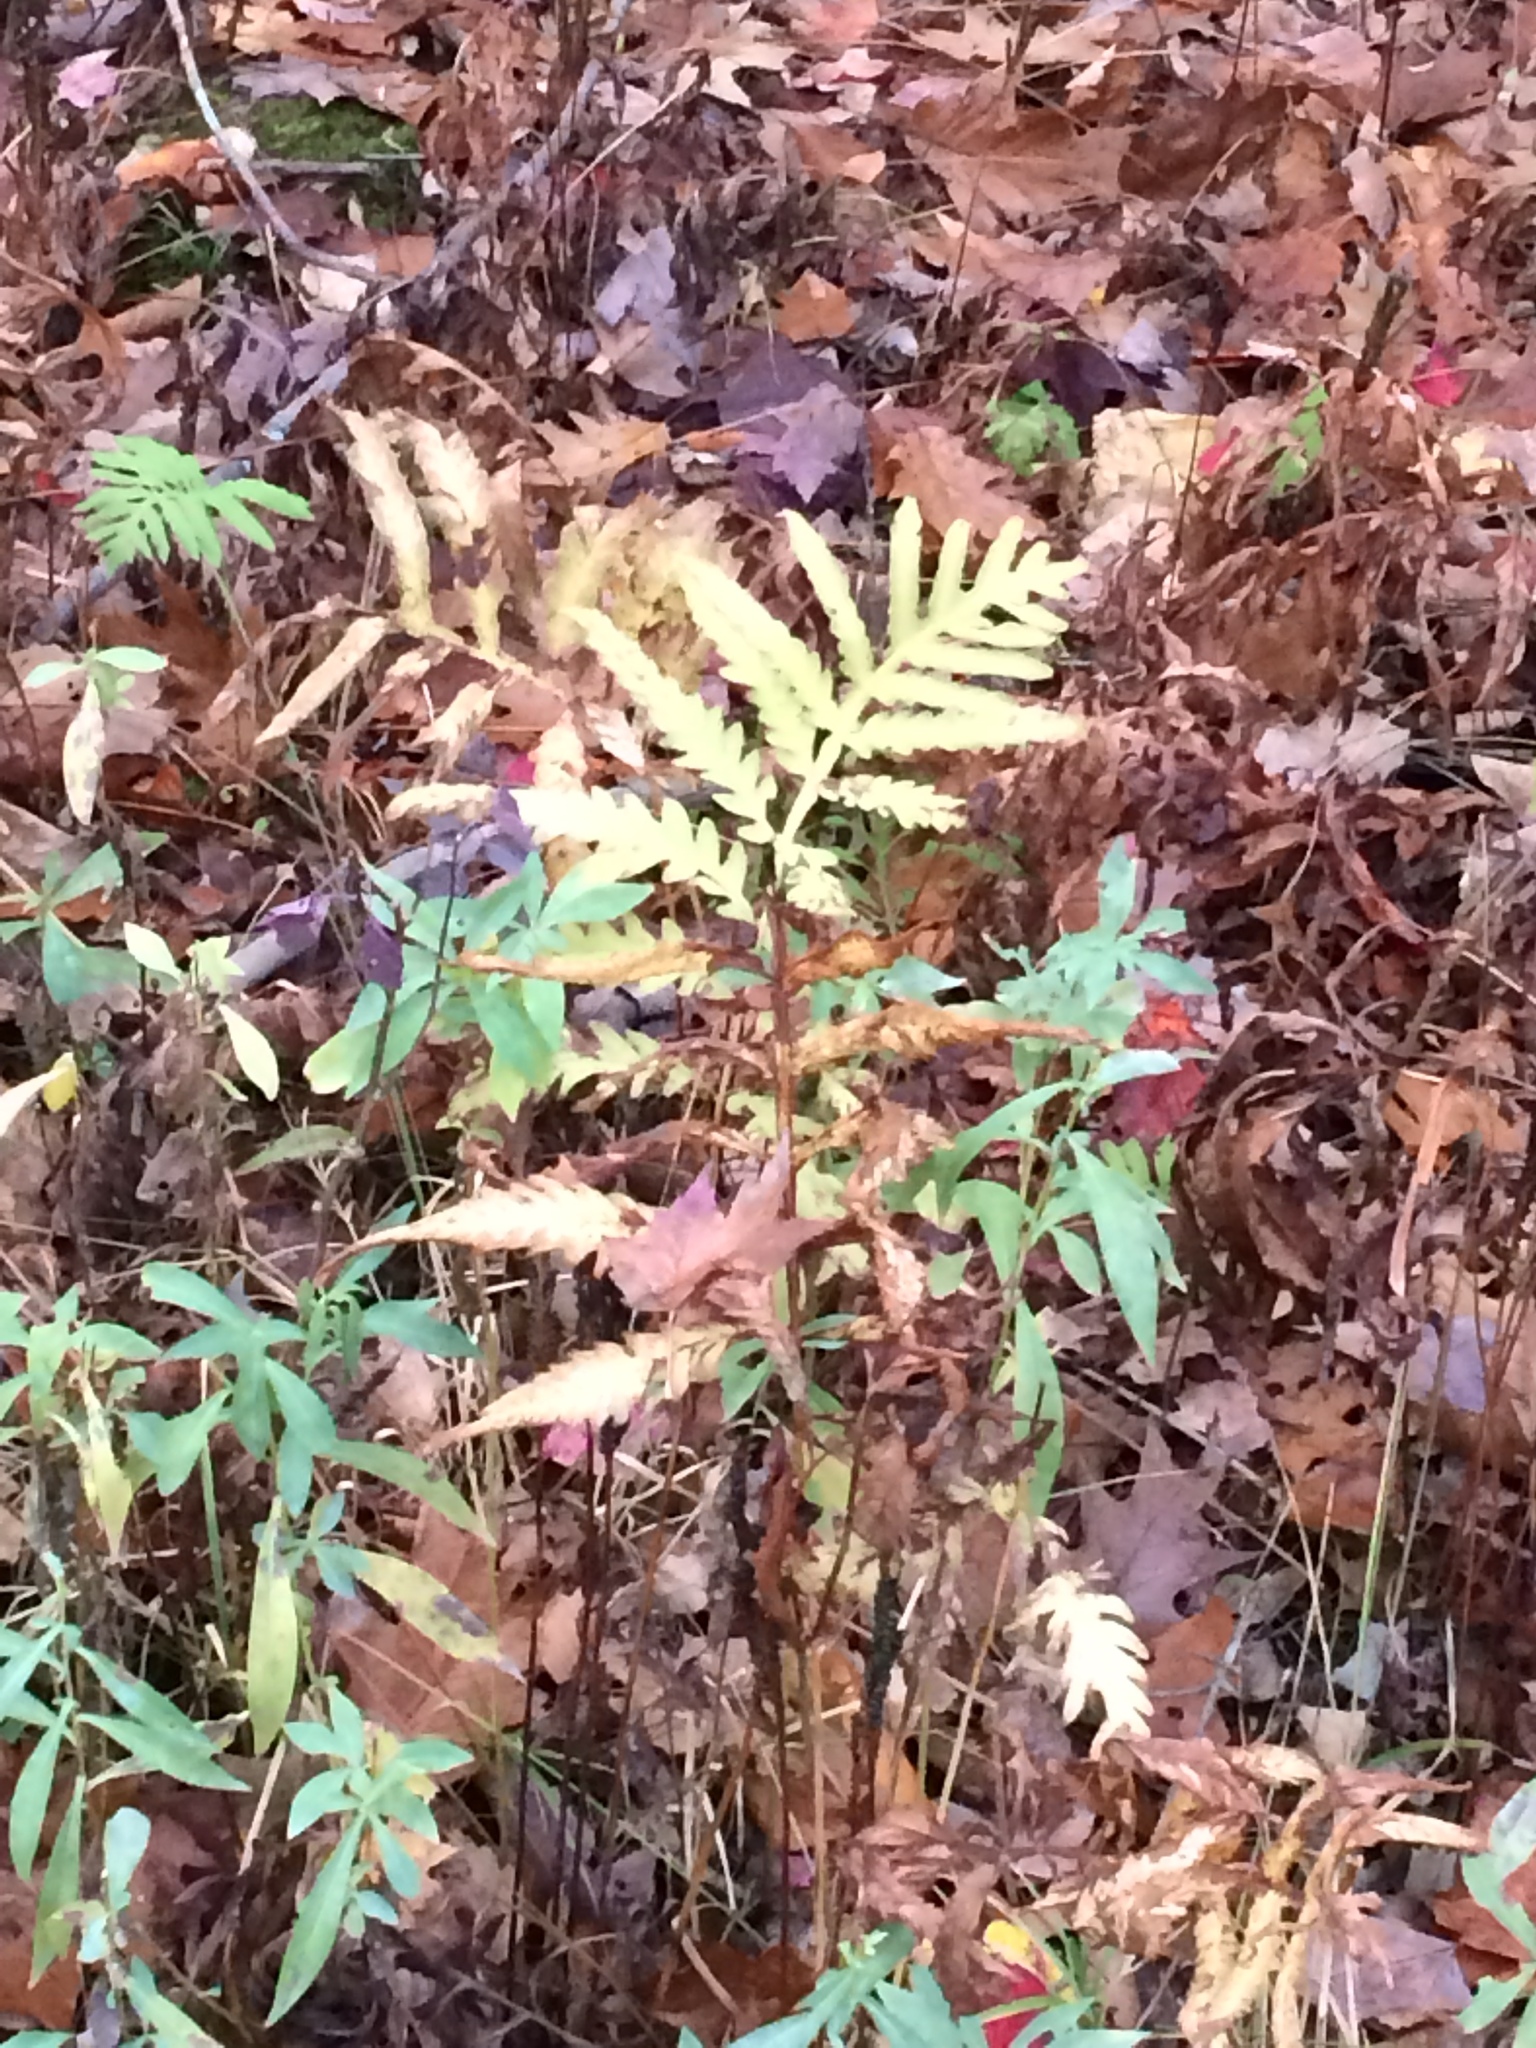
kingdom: Plantae
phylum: Tracheophyta
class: Polypodiopsida
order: Polypodiales
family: Onocleaceae
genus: Onoclea
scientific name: Onoclea sensibilis
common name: Sensitive fern
